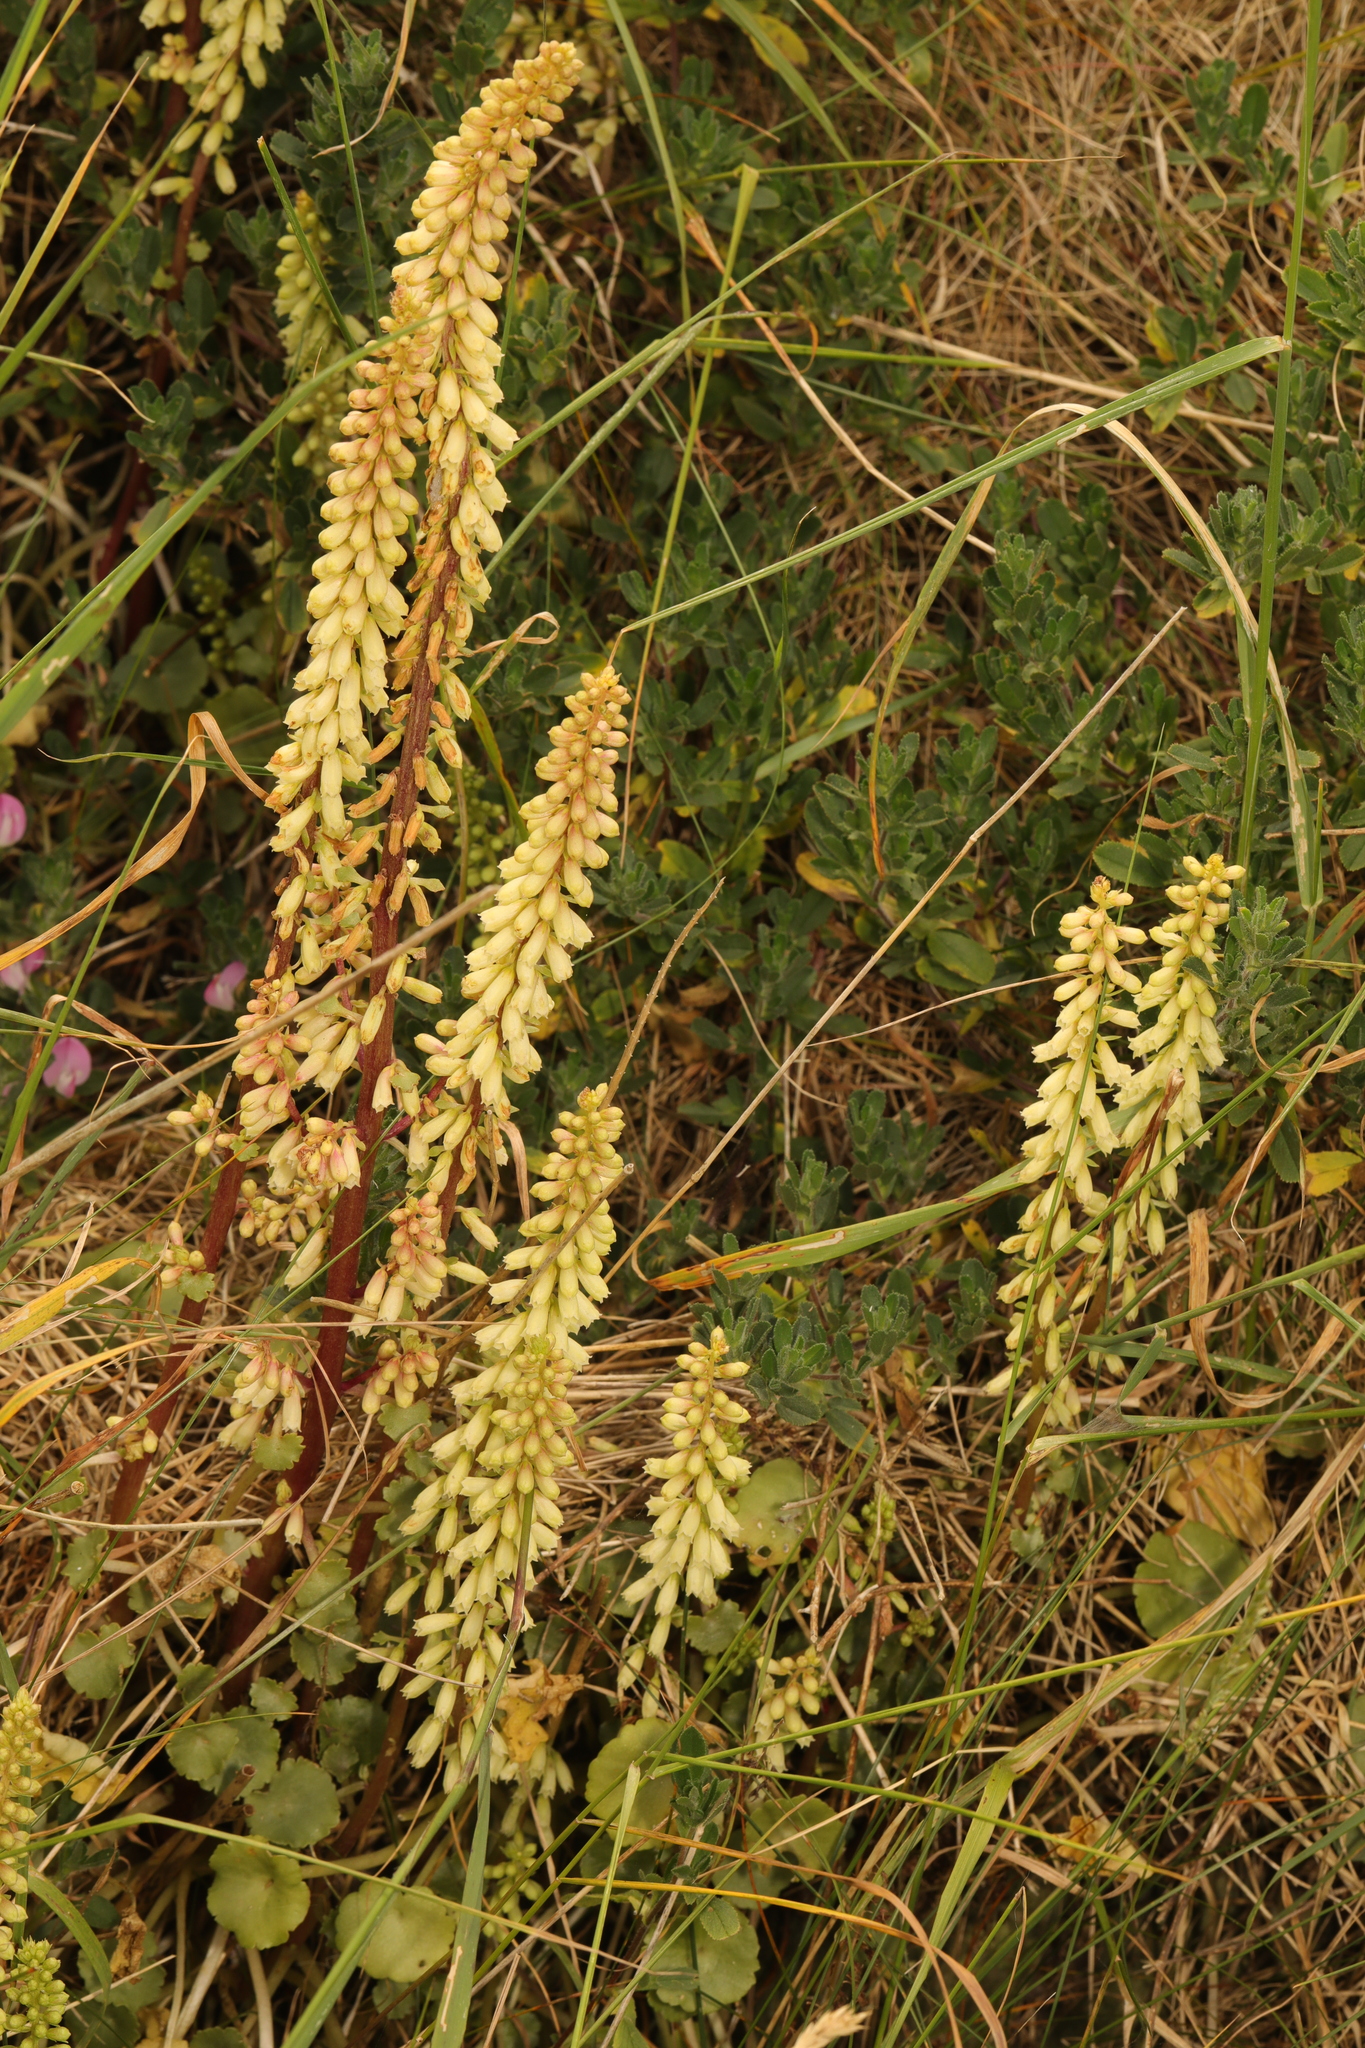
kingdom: Plantae
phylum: Tracheophyta
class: Magnoliopsida
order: Saxifragales
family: Crassulaceae
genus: Umbilicus
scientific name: Umbilicus rupestris
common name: Navelwort
